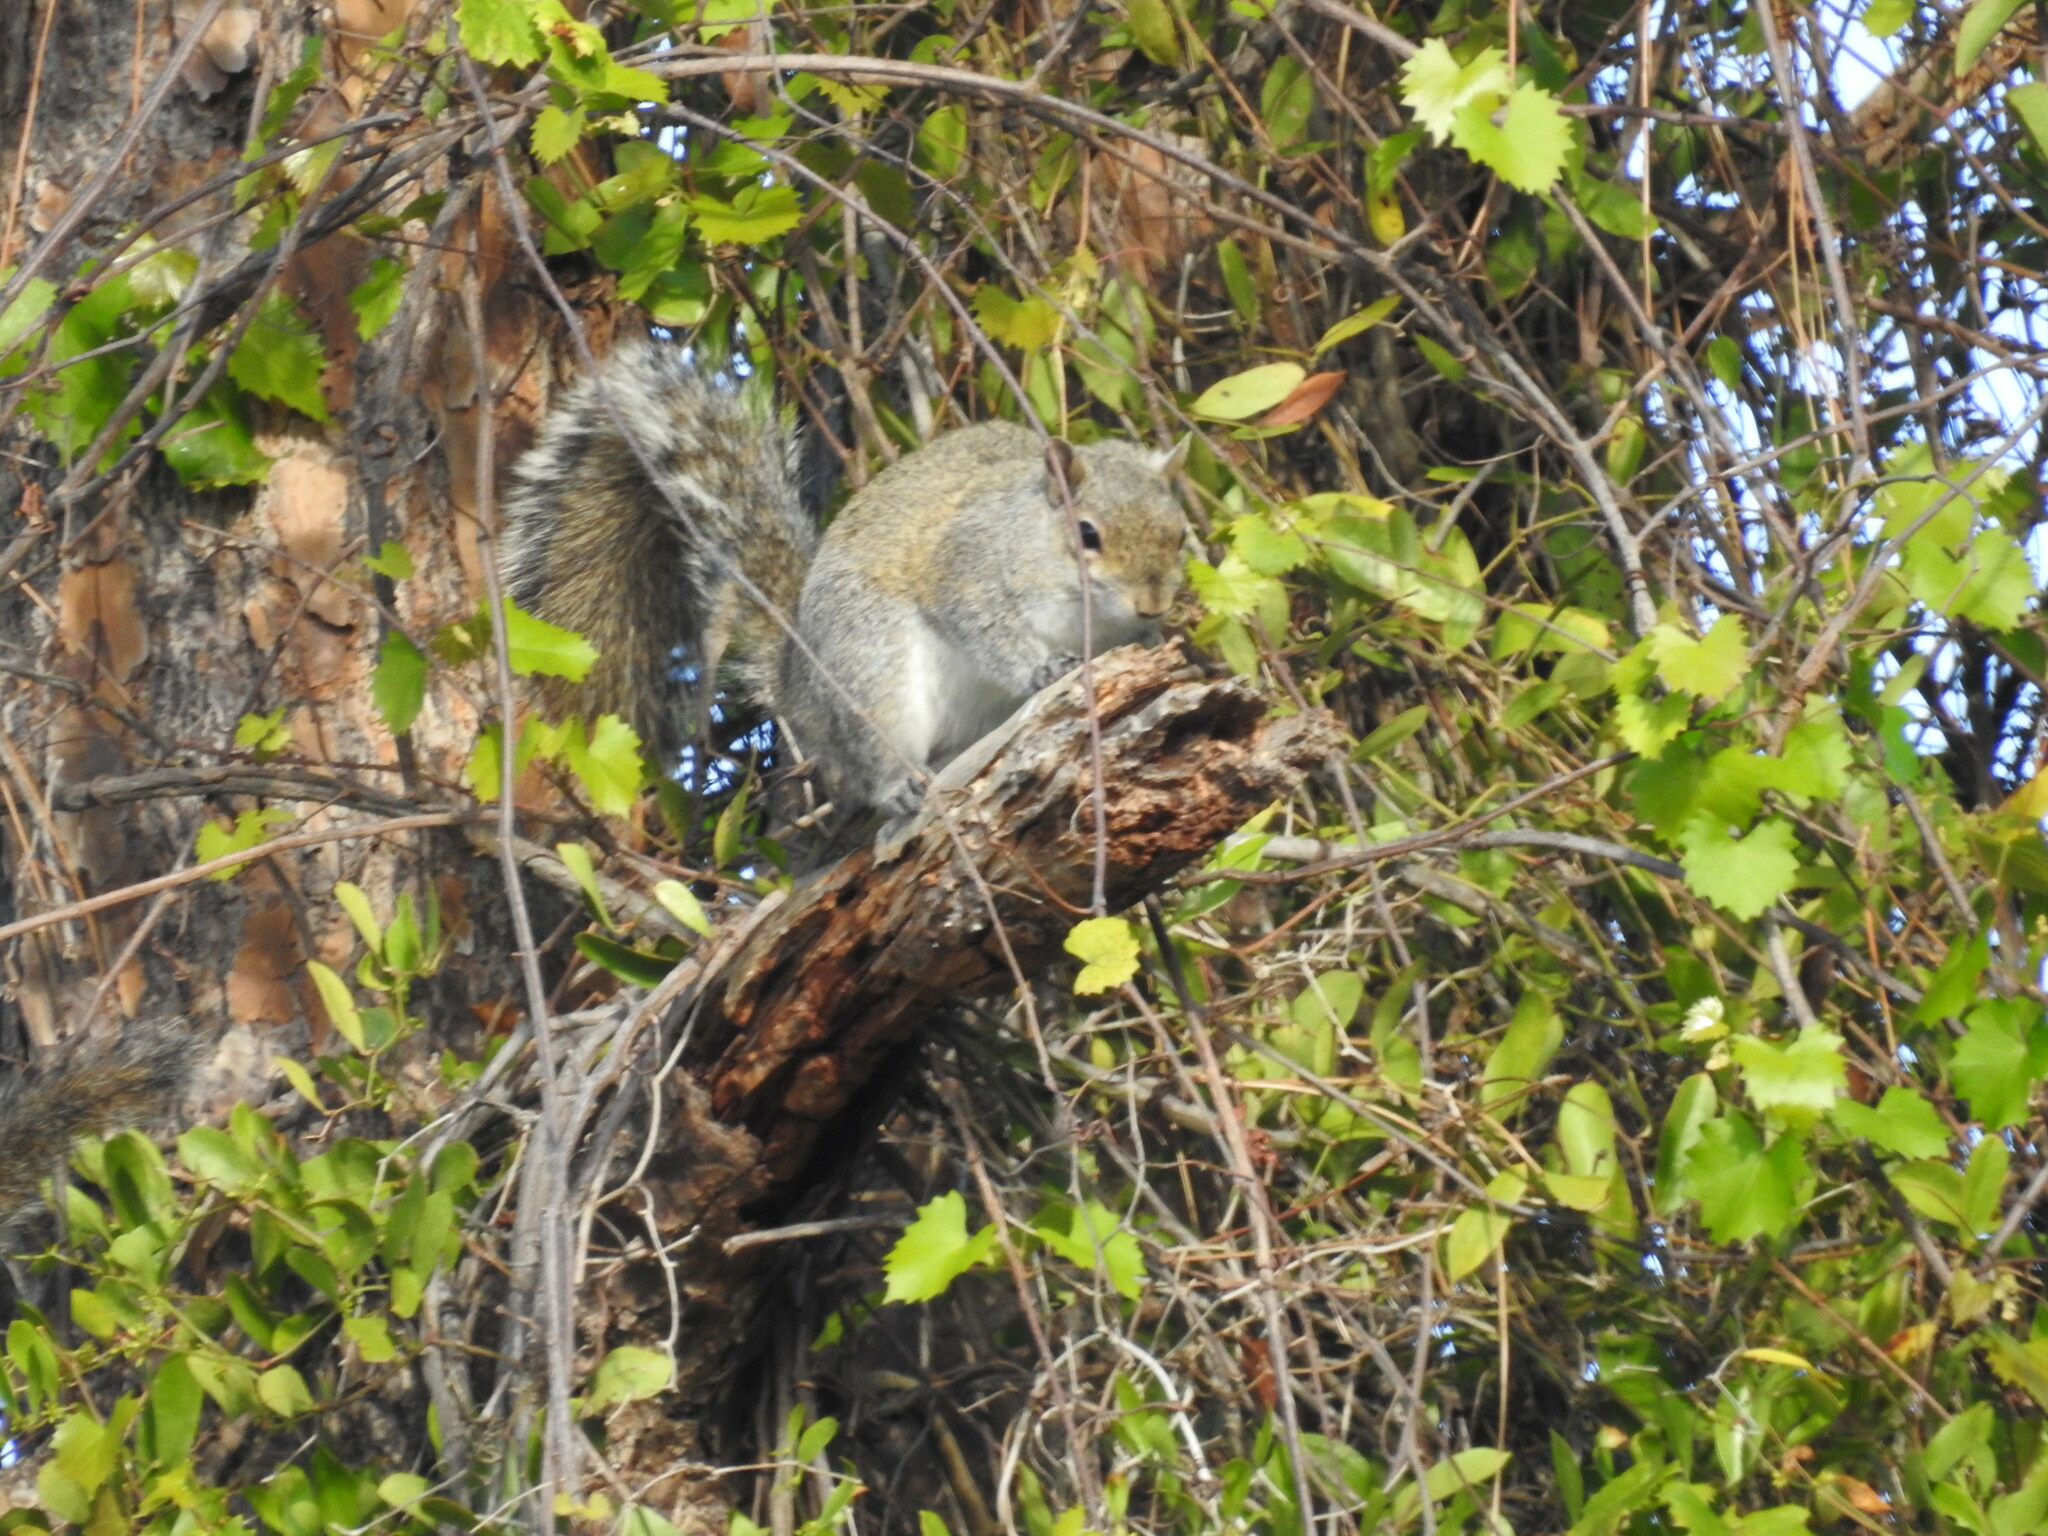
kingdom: Animalia
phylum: Chordata
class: Mammalia
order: Rodentia
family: Sciuridae
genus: Sciurus
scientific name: Sciurus carolinensis
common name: Eastern gray squirrel
